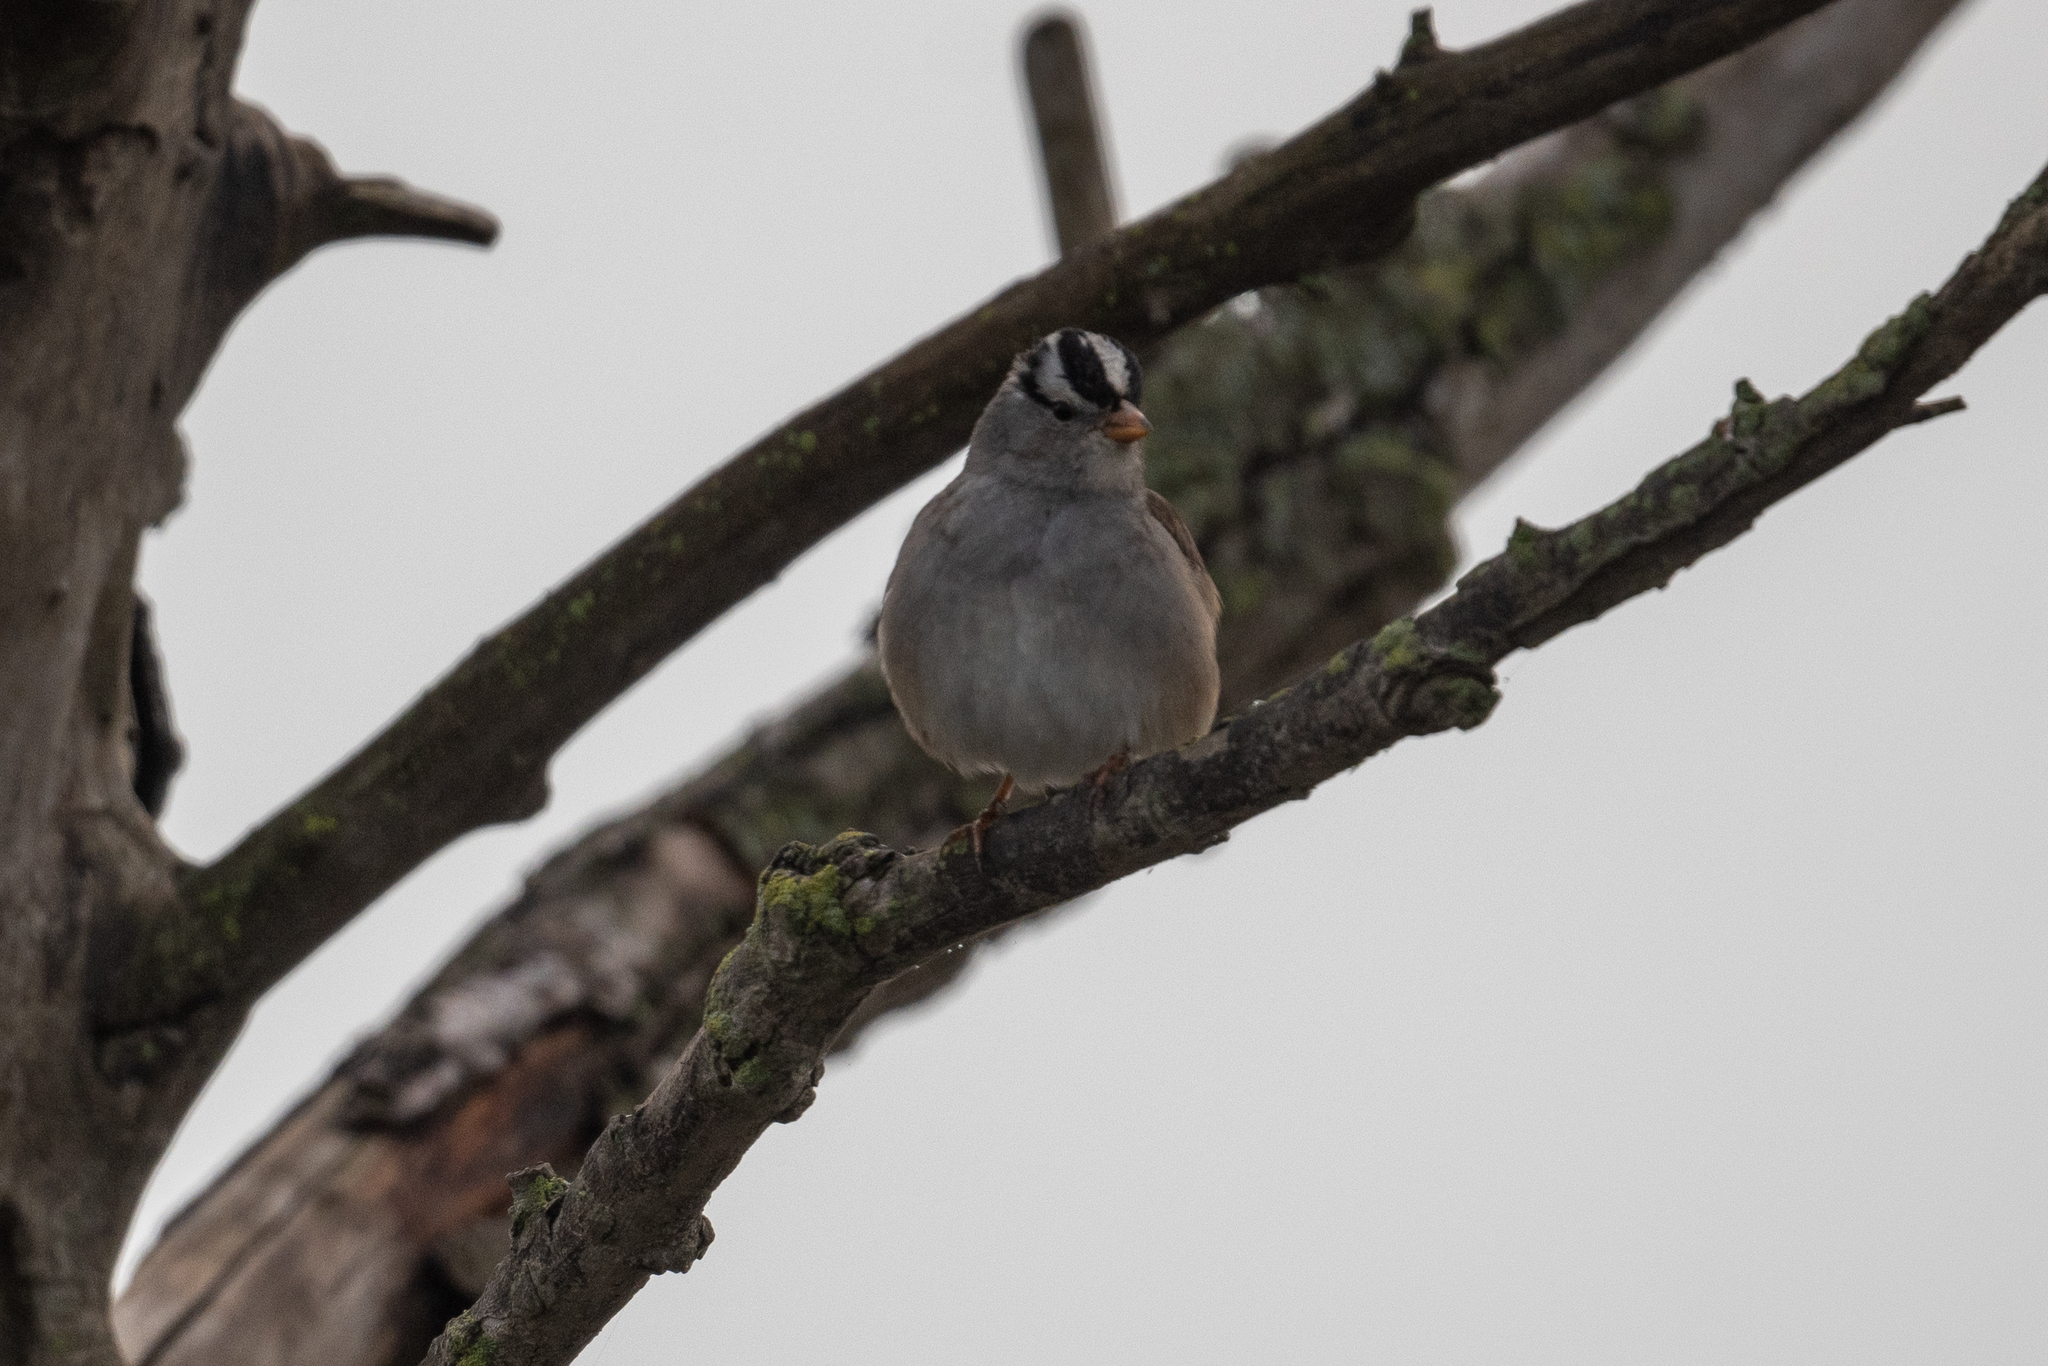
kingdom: Animalia
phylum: Chordata
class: Aves
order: Passeriformes
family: Passerellidae
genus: Zonotrichia
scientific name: Zonotrichia leucophrys
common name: White-crowned sparrow
